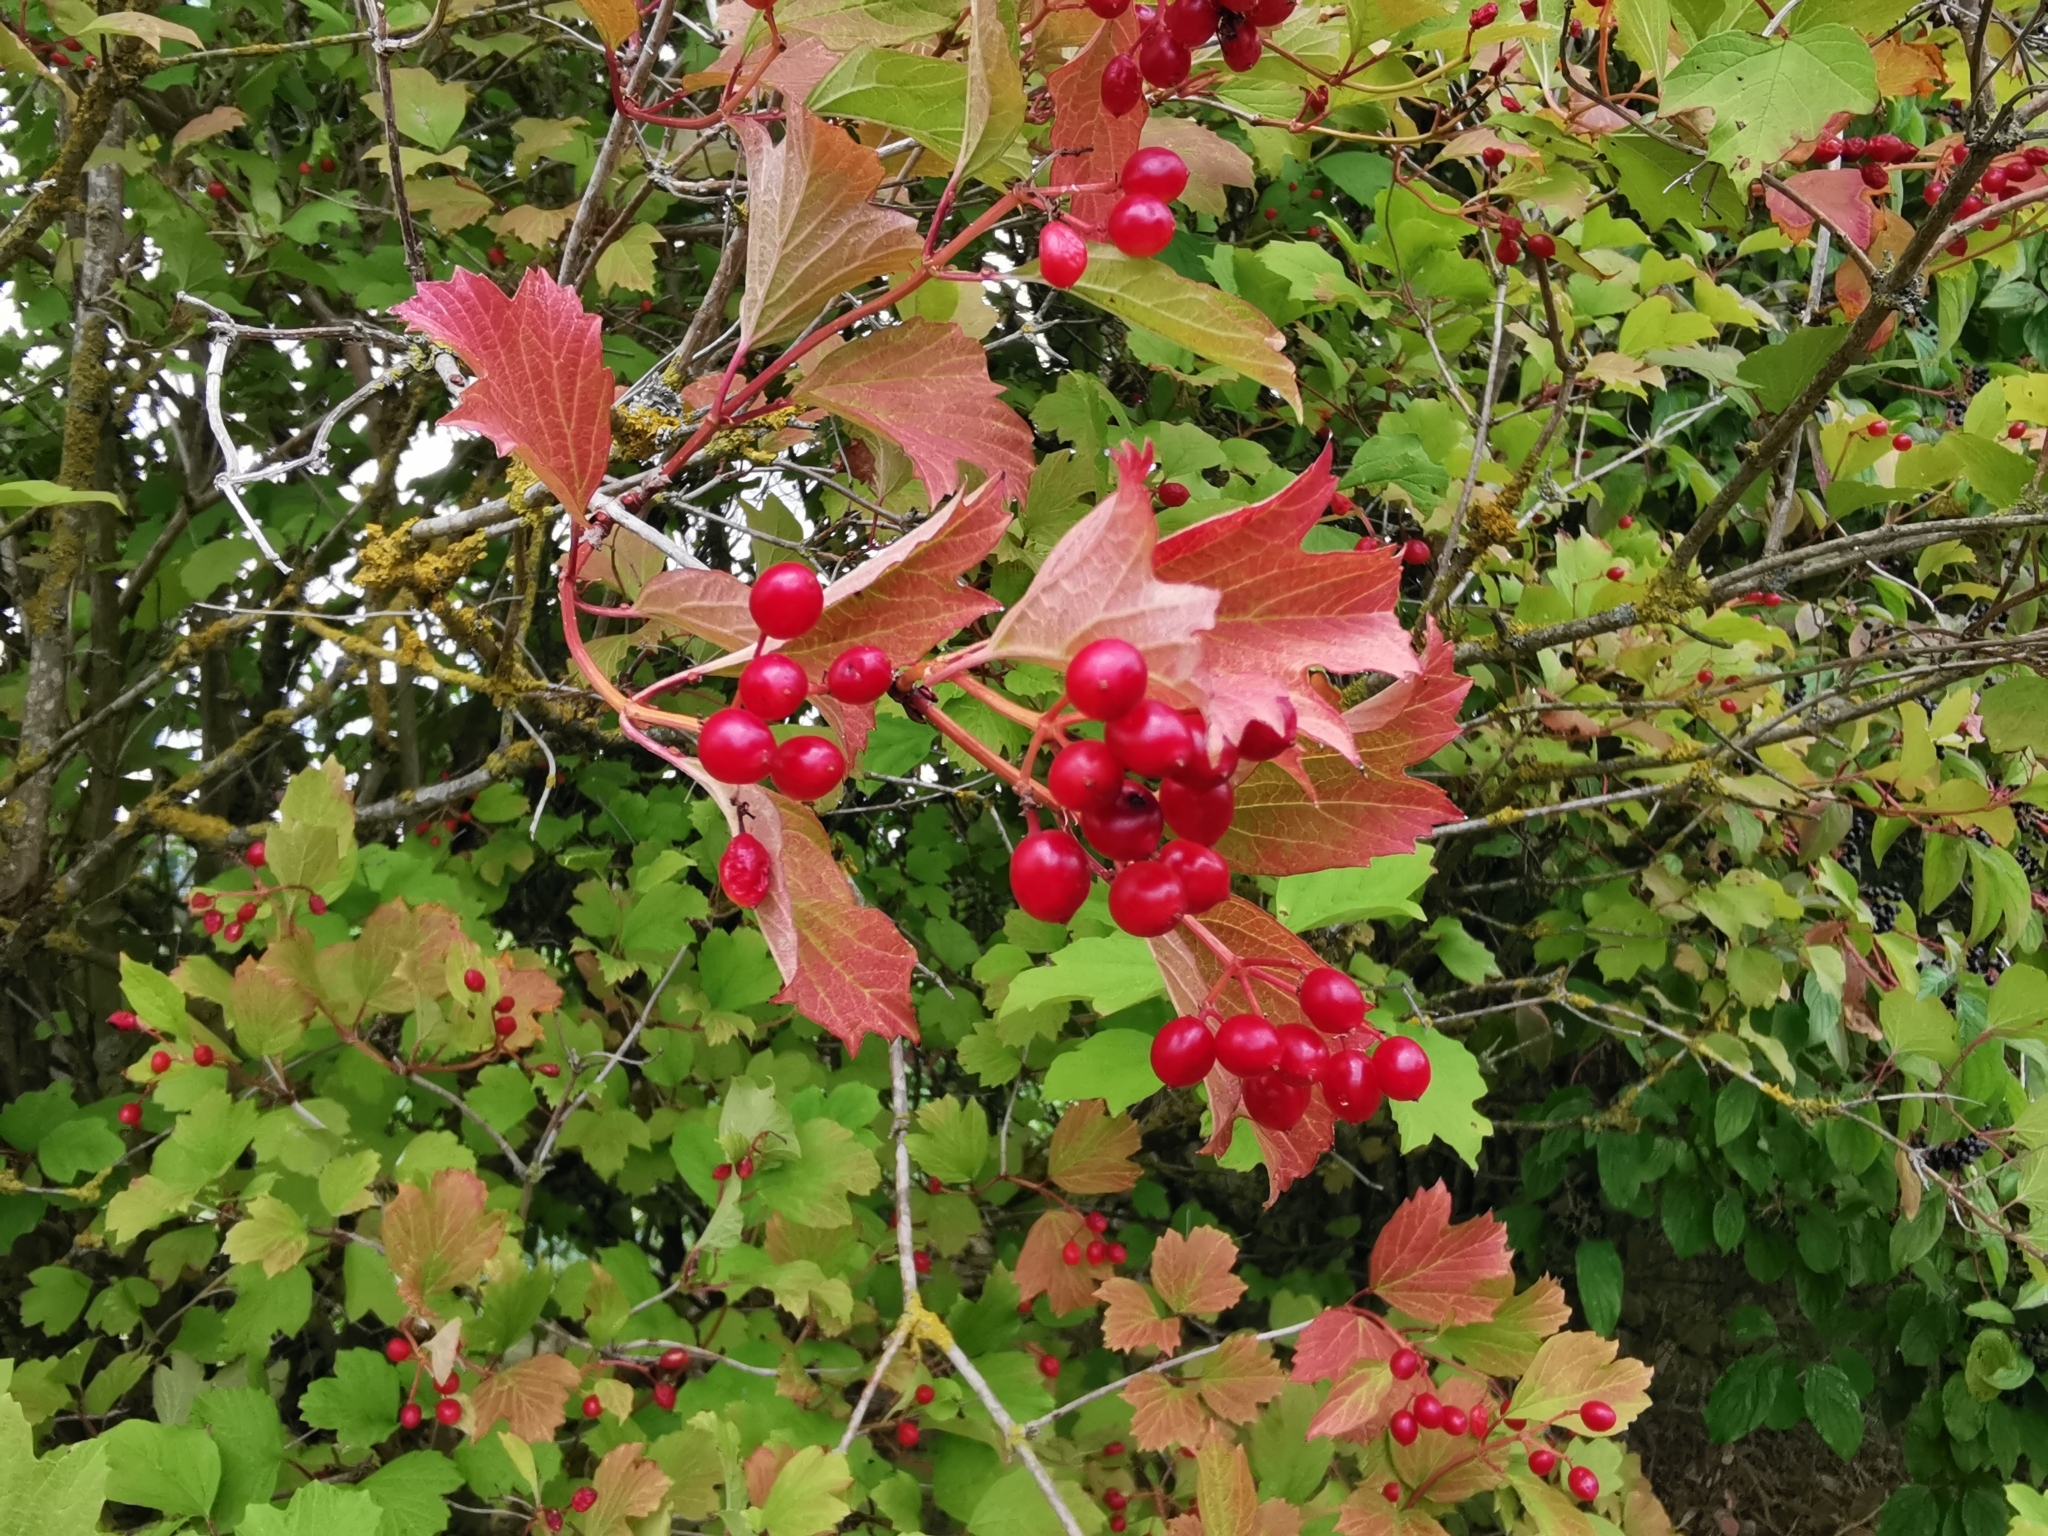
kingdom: Plantae
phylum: Tracheophyta
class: Magnoliopsida
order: Dipsacales
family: Viburnaceae
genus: Viburnum
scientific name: Viburnum opulus
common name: Guelder-rose
